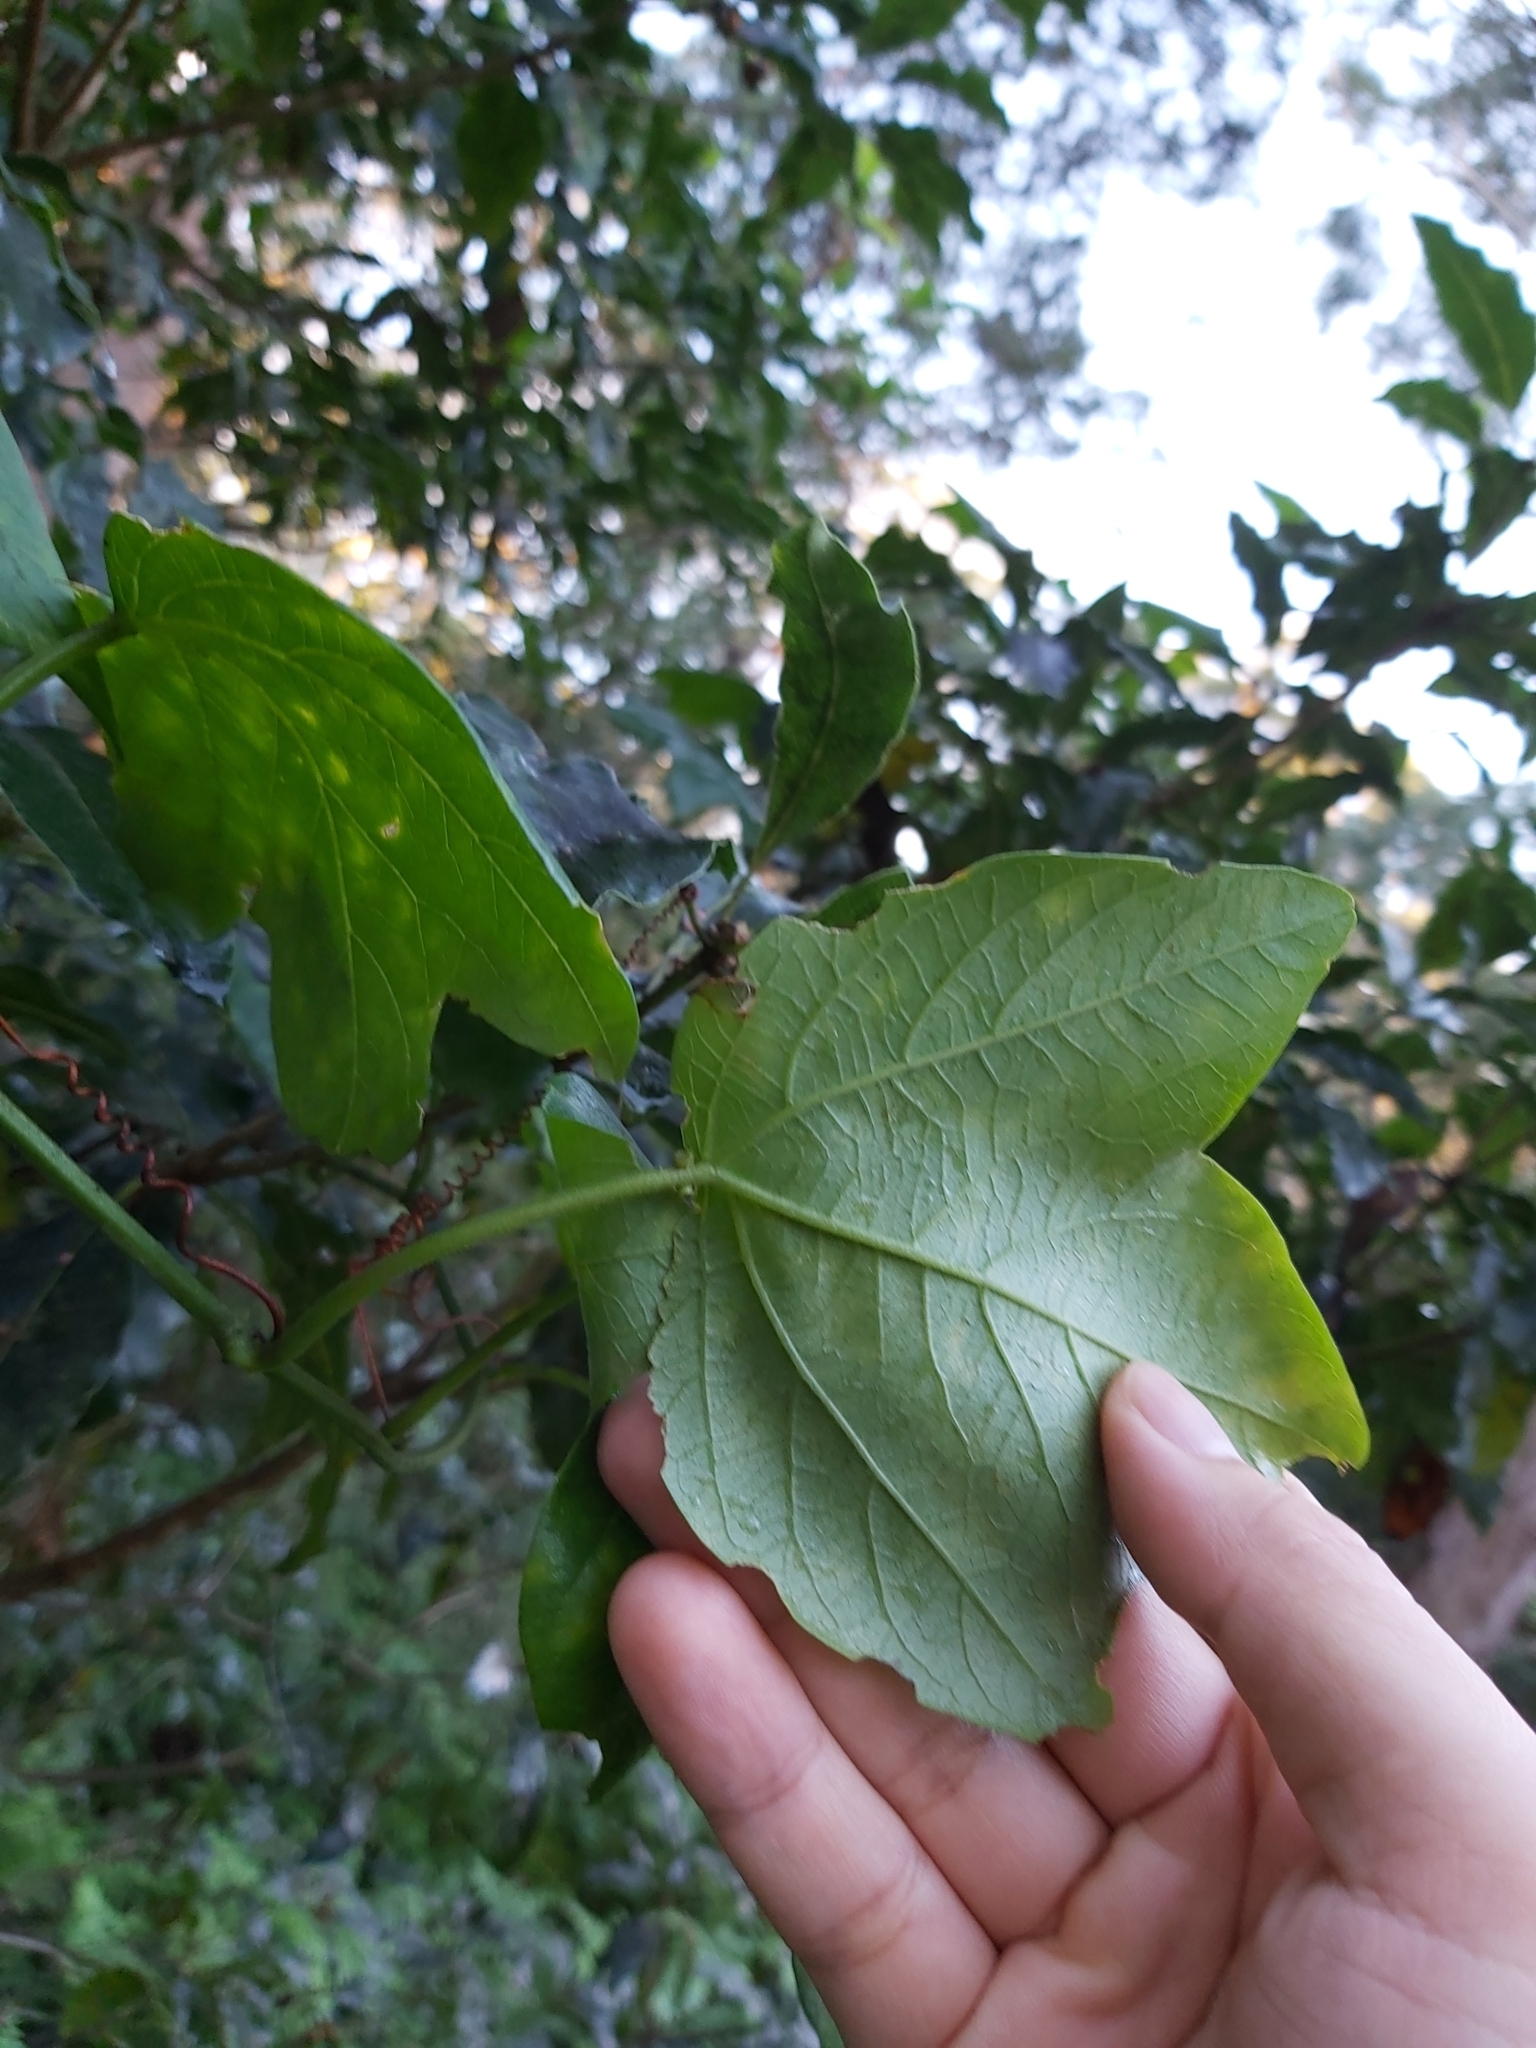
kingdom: Plantae
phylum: Tracheophyta
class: Magnoliopsida
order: Malpighiales
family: Passifloraceae
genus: Passiflora
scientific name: Passiflora herbertiana
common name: Yellow passionflower
